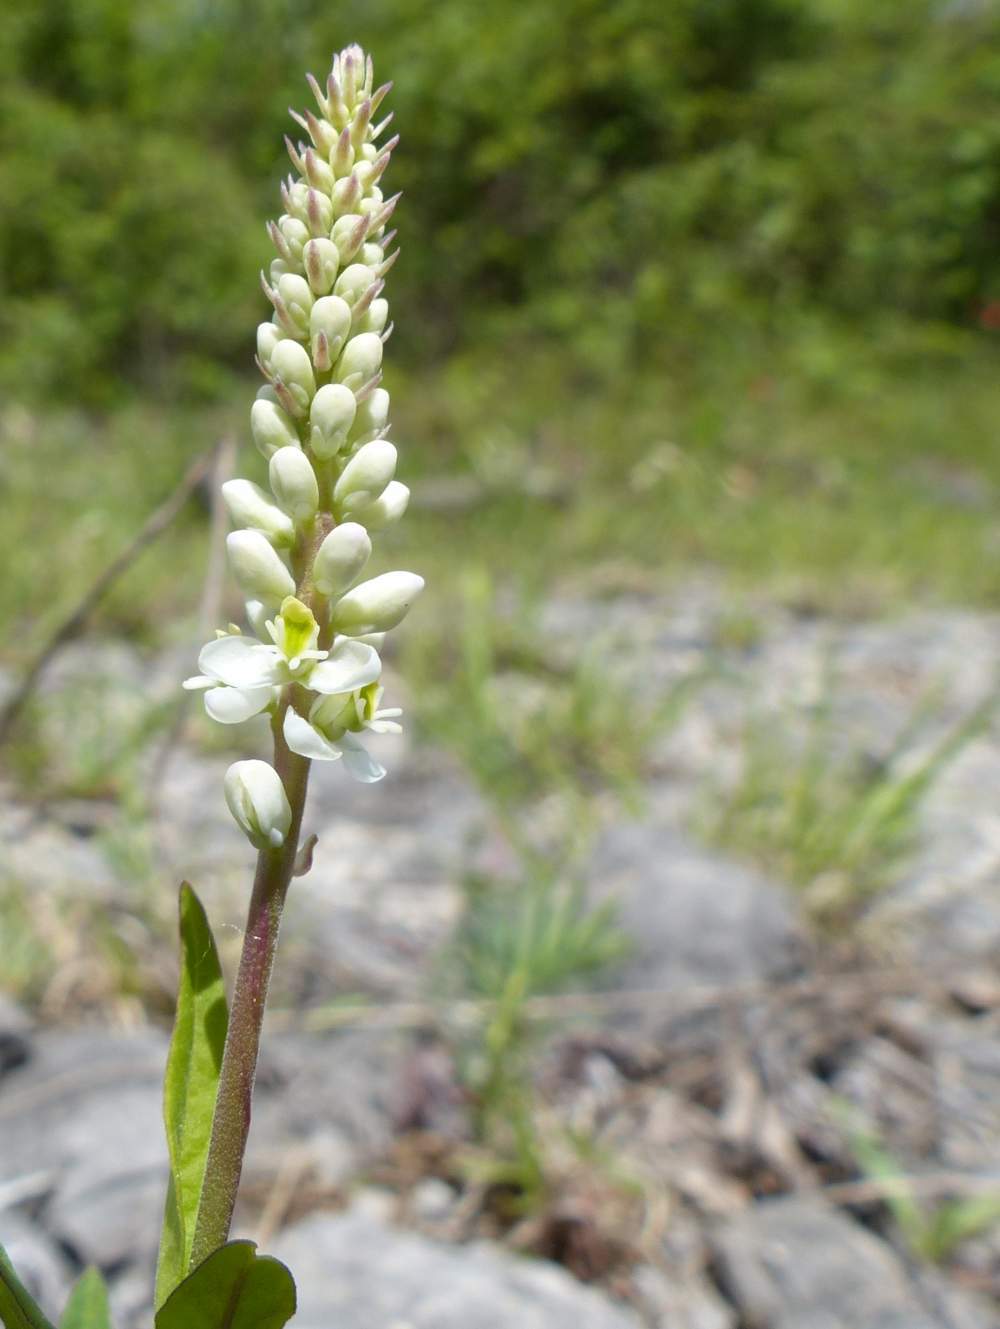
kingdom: Plantae
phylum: Tracheophyta
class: Magnoliopsida
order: Fabales
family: Polygalaceae
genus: Polygala
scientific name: Polygala senega
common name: Seneca snakeroot
